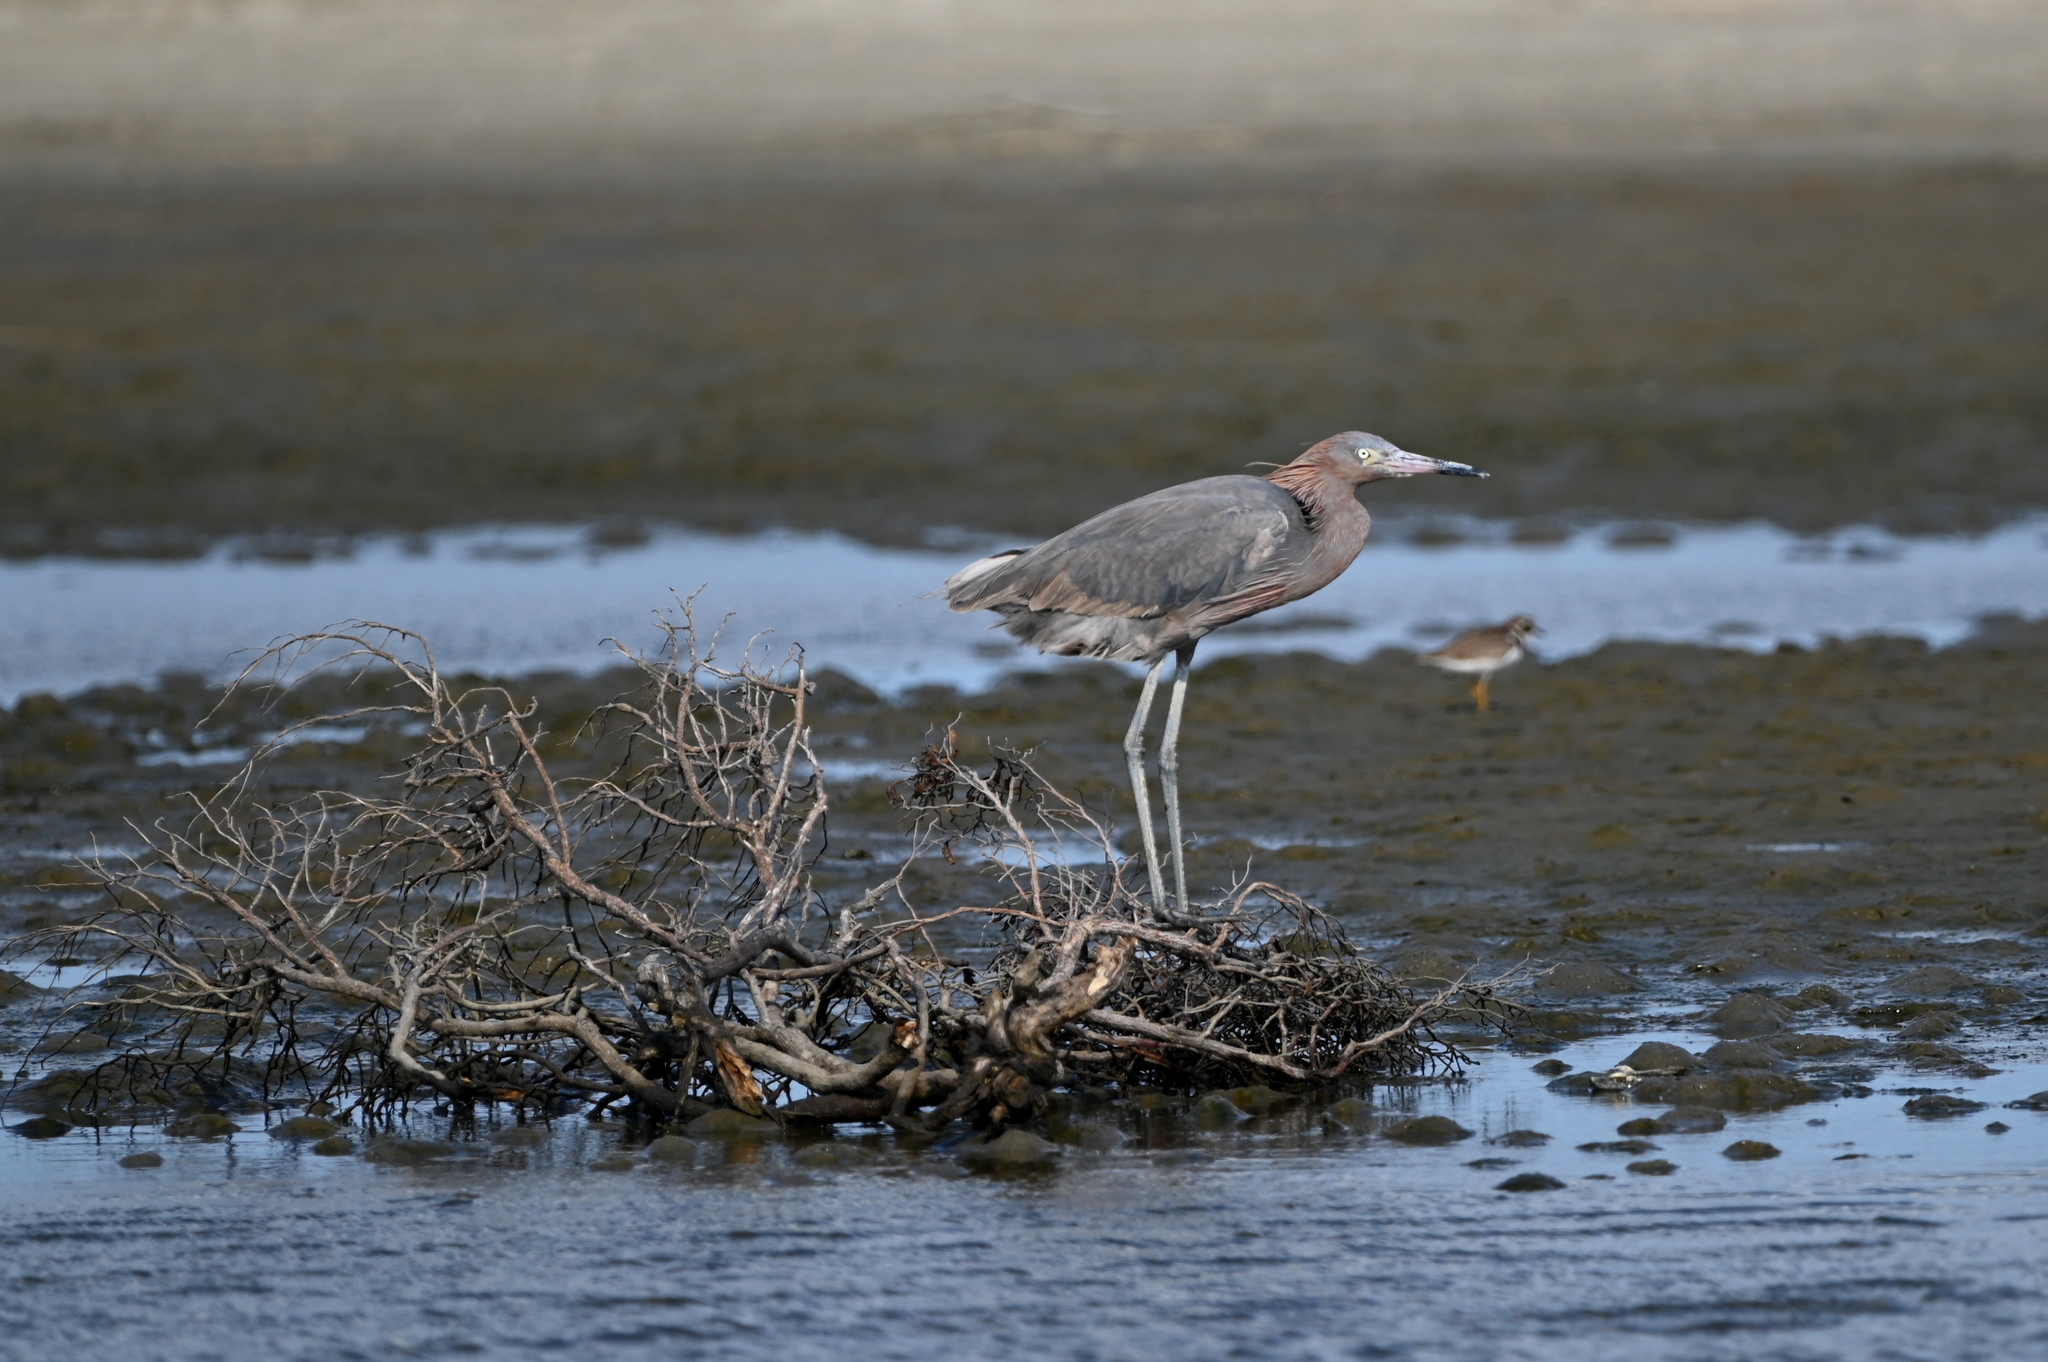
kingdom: Animalia
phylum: Chordata
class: Aves
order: Pelecaniformes
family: Ardeidae
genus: Egretta
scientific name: Egretta rufescens
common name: Reddish egret
